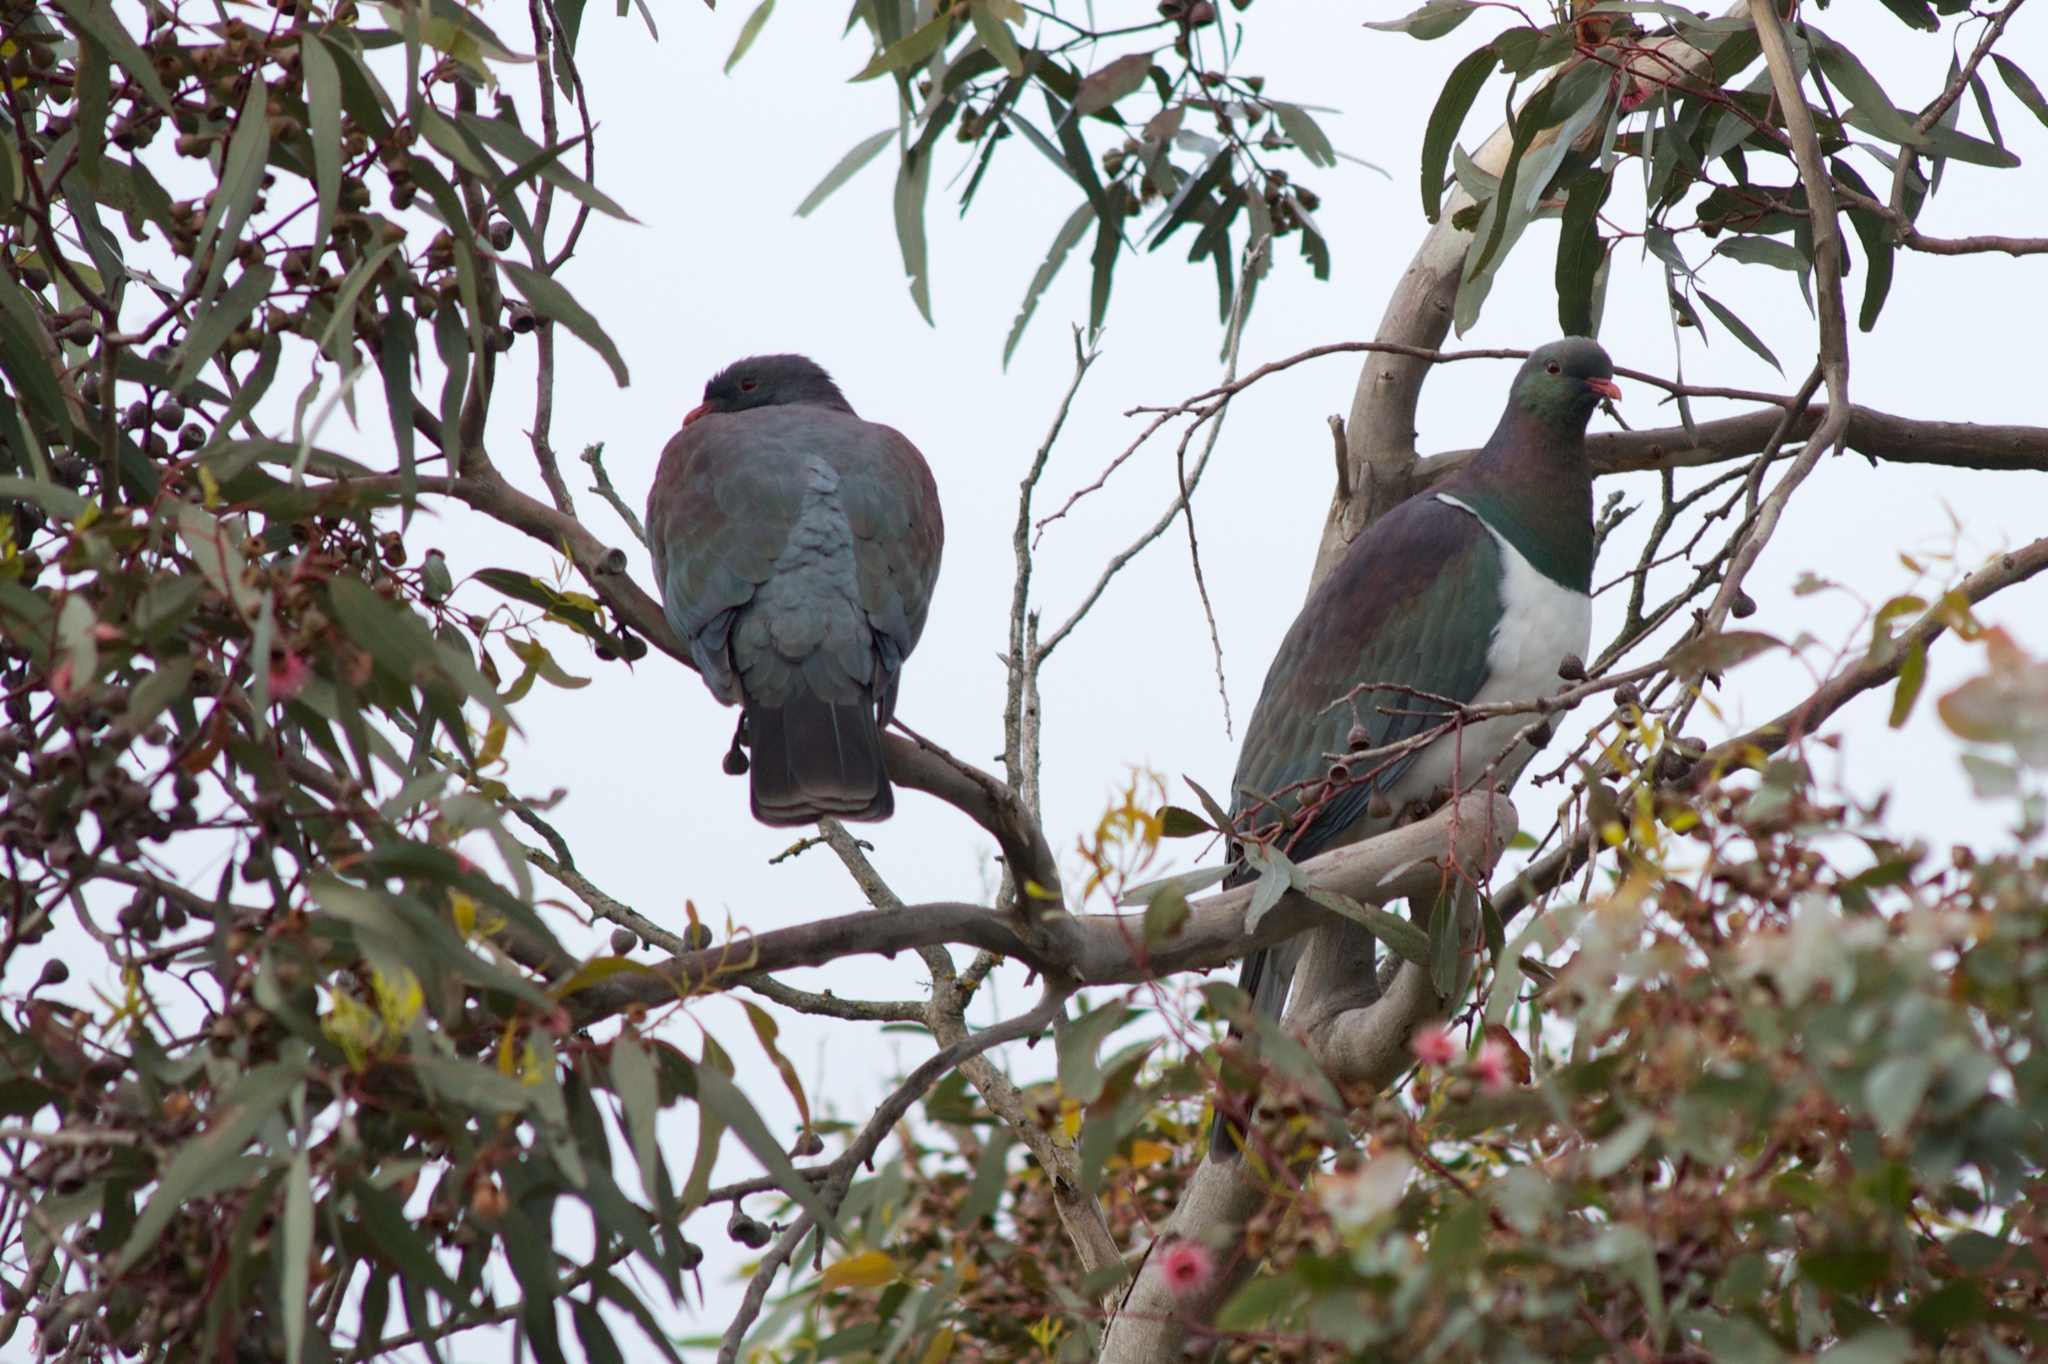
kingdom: Animalia
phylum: Chordata
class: Aves
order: Columbiformes
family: Columbidae
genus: Hemiphaga
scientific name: Hemiphaga novaeseelandiae
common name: New zealand pigeon
